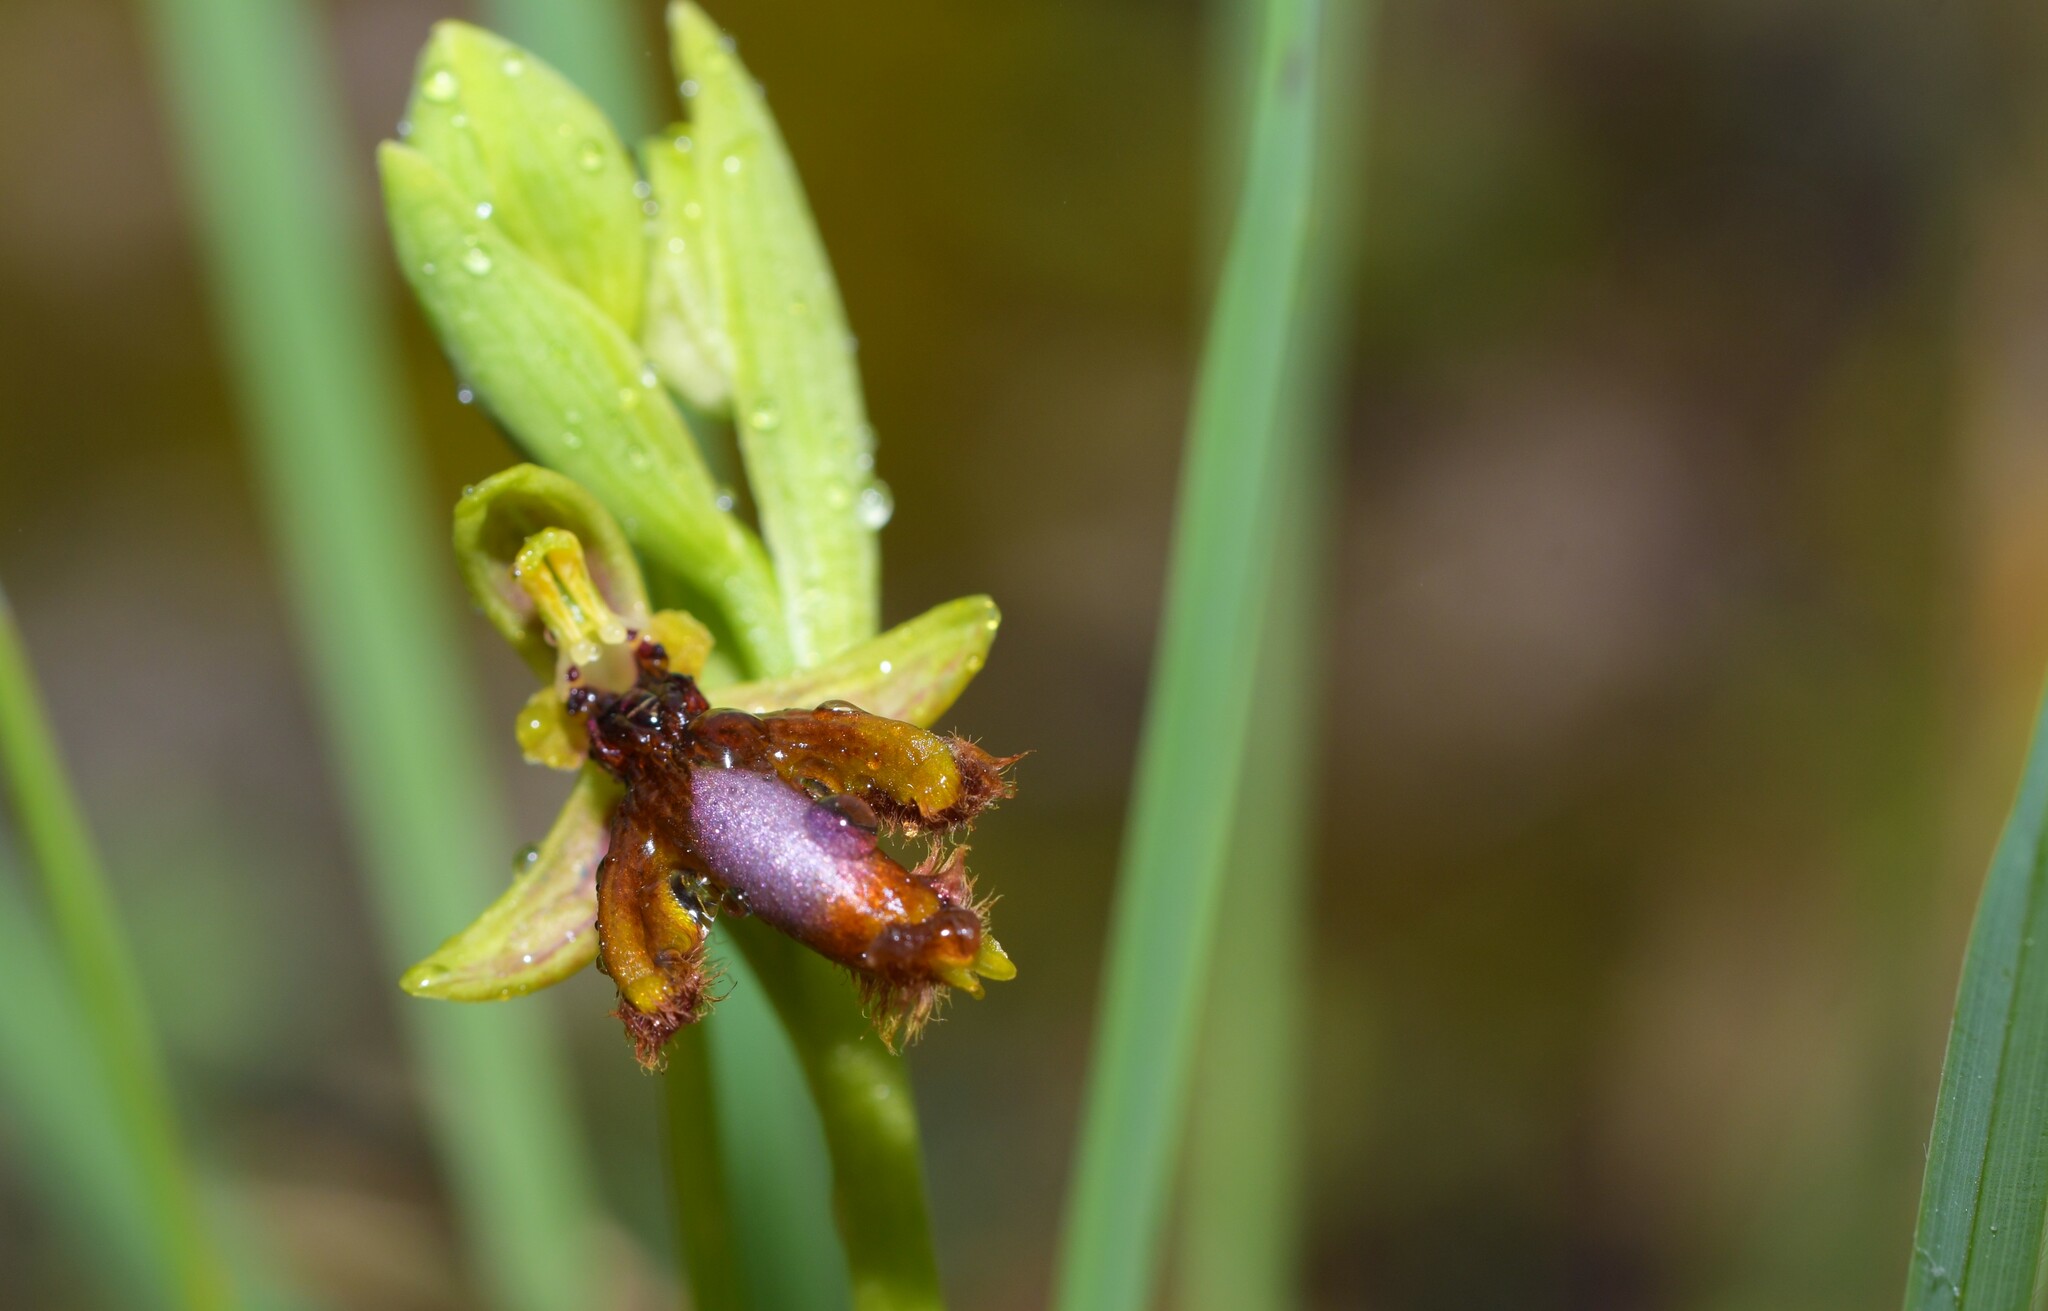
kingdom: Plantae
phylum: Tracheophyta
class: Liliopsida
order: Asparagales
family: Orchidaceae
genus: Ophrys
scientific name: Ophrys speculum
